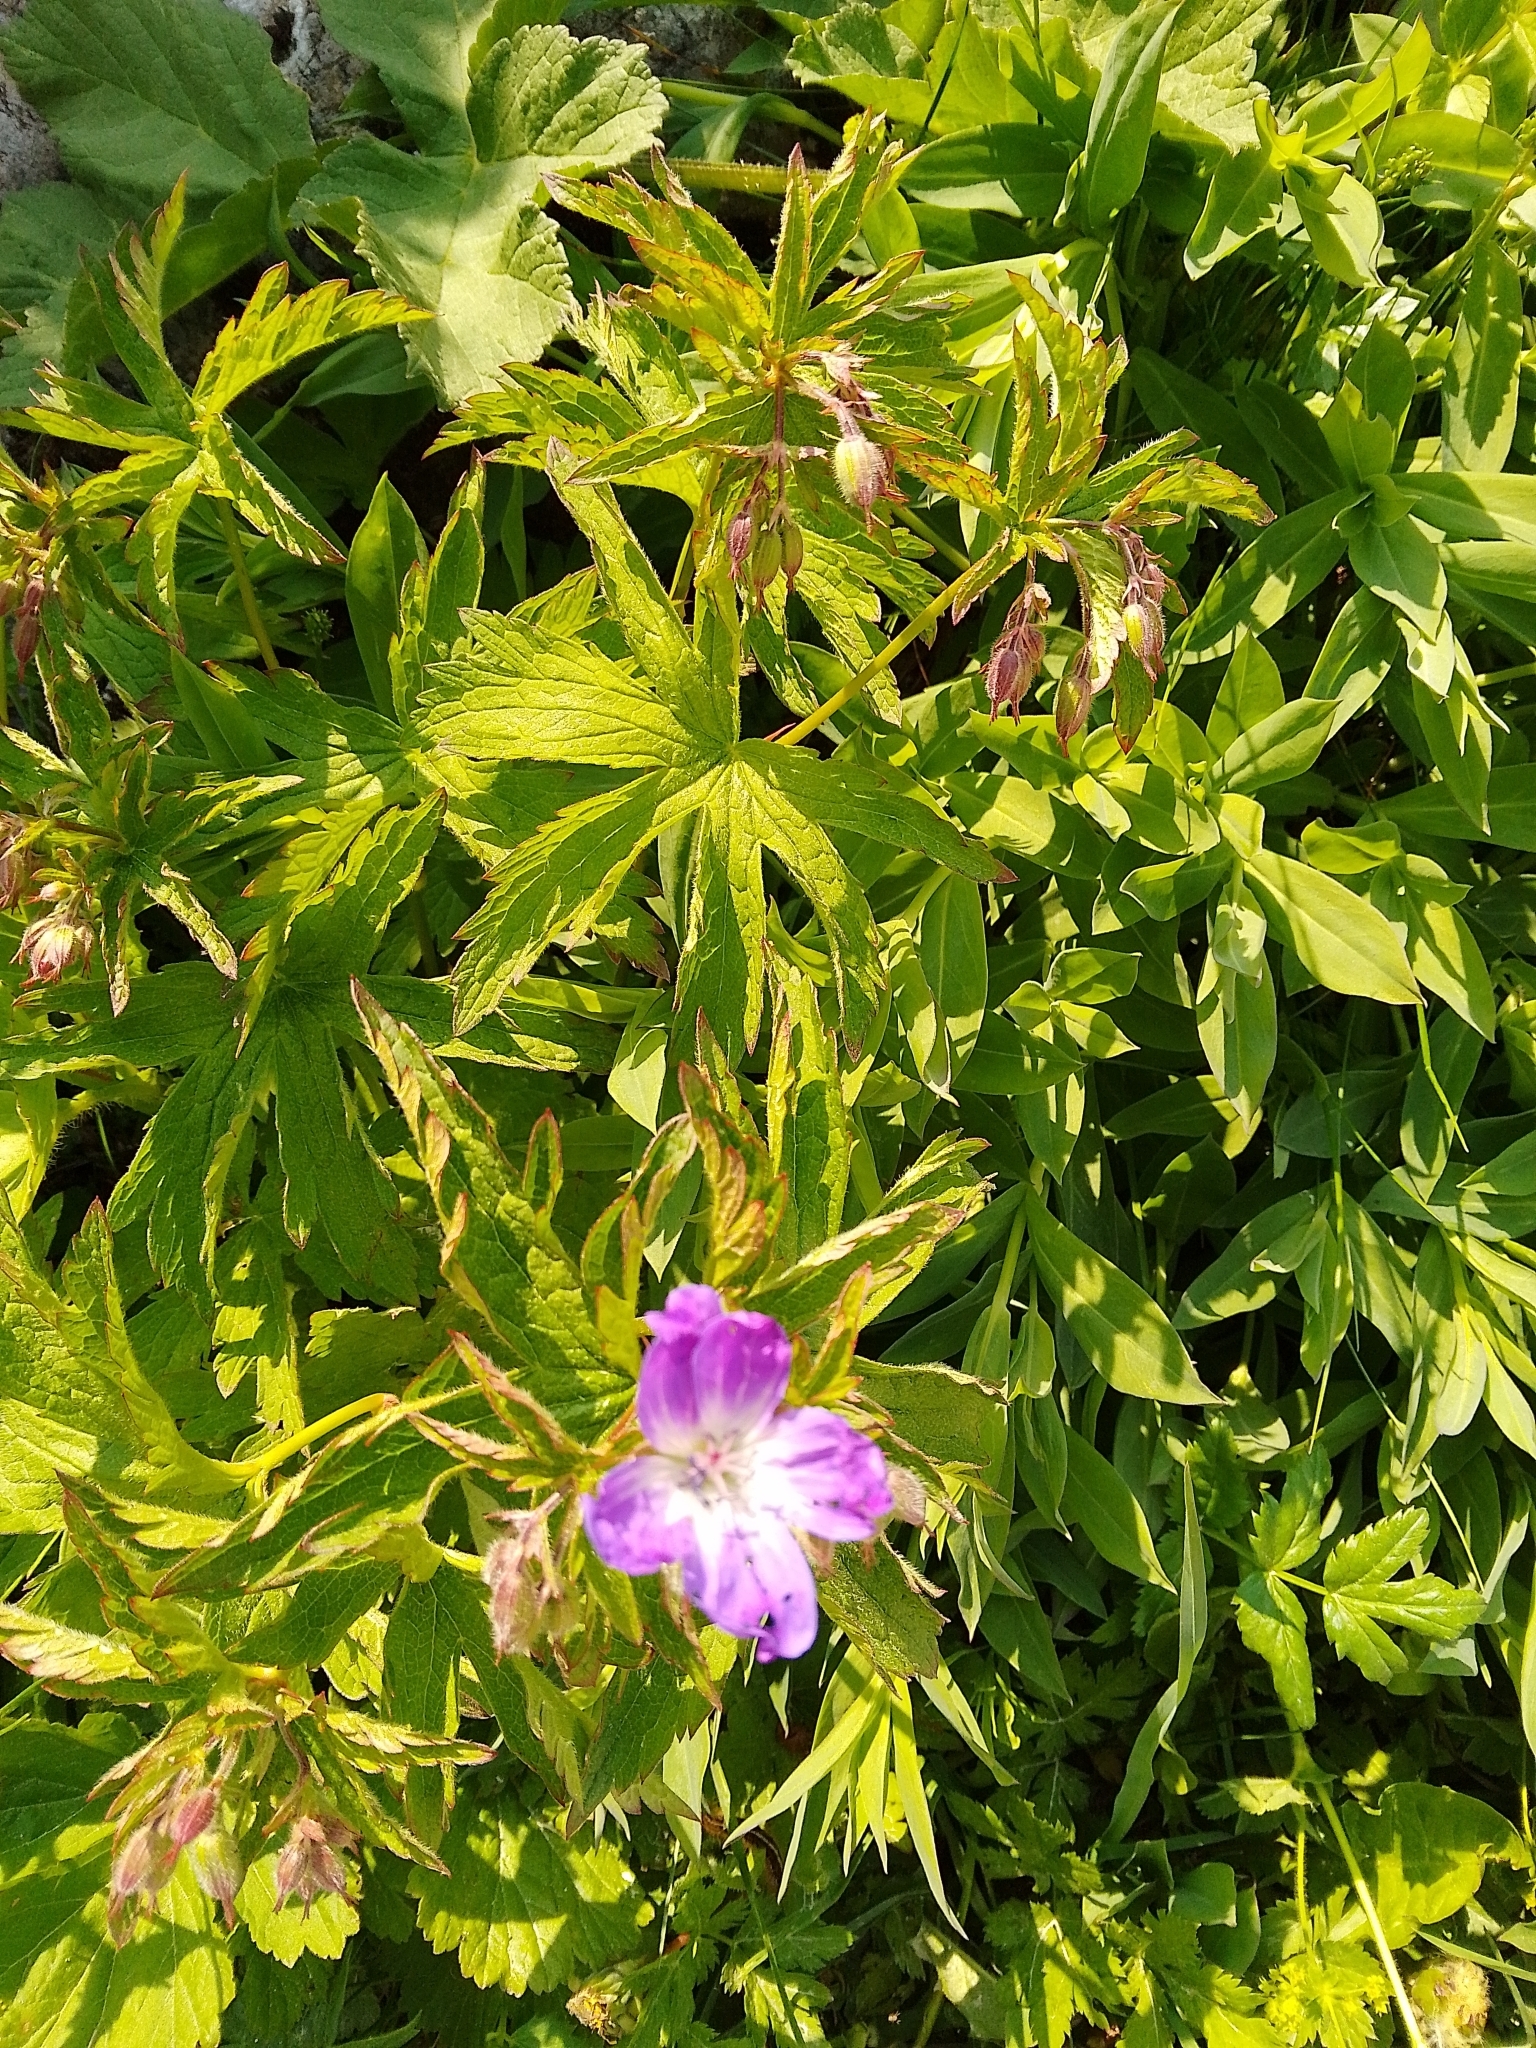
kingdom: Plantae
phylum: Tracheophyta
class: Magnoliopsida
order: Geraniales
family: Geraniaceae
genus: Geranium
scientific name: Geranium sylvaticum
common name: Wood crane's-bill
